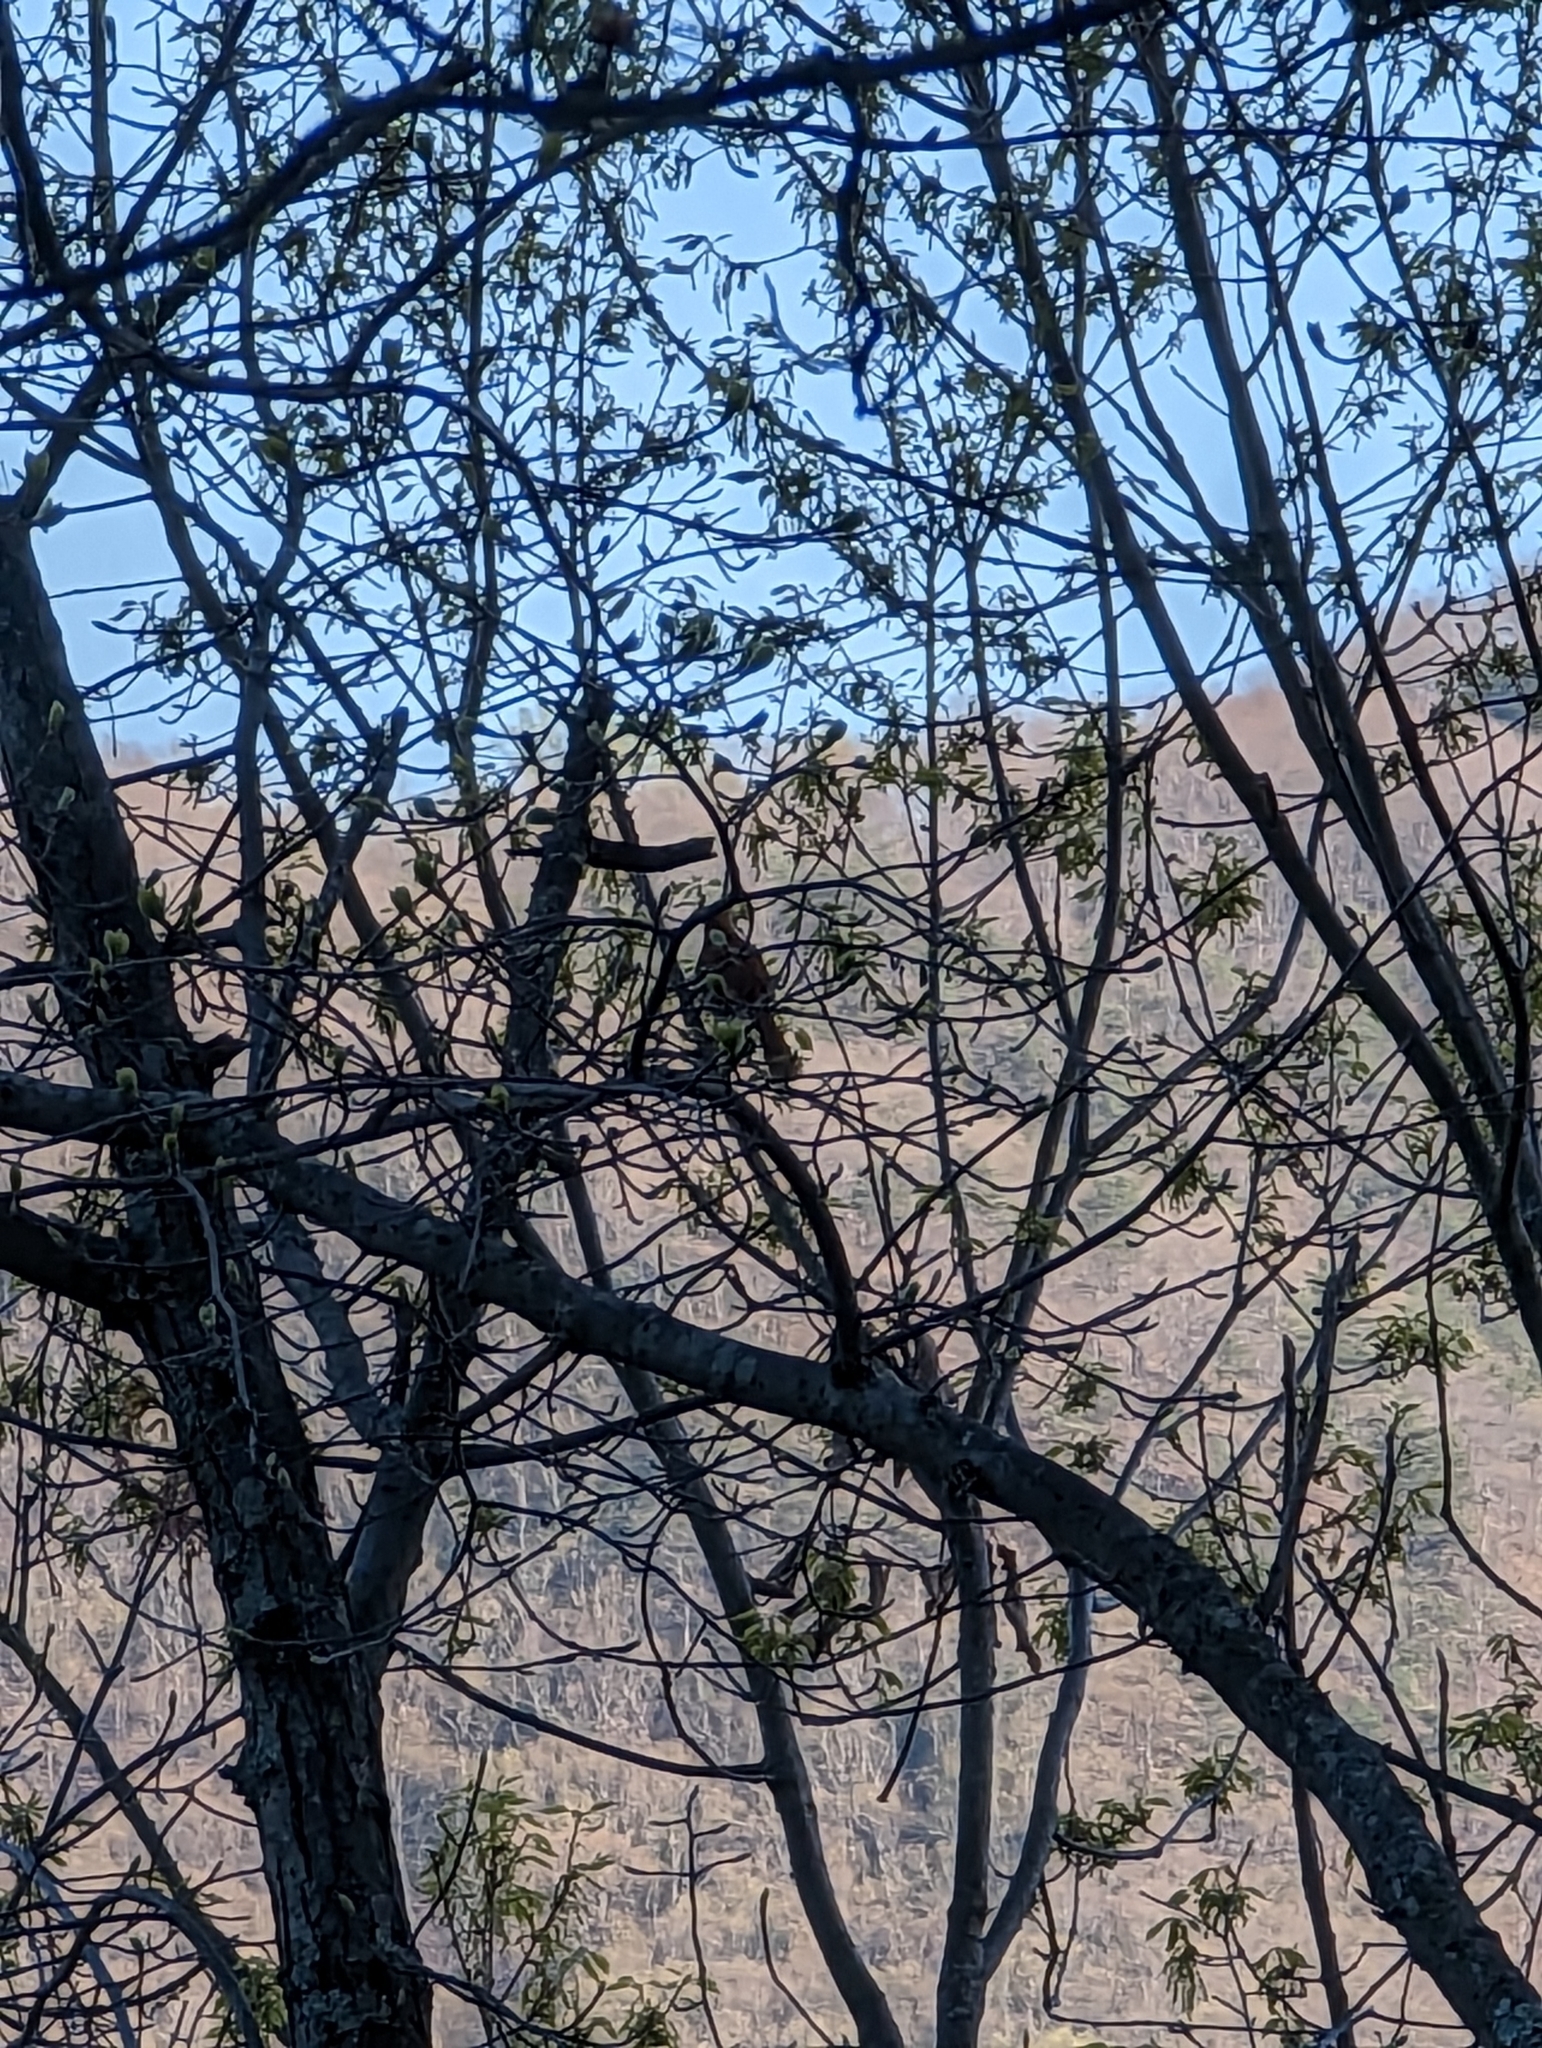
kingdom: Animalia
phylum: Chordata
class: Aves
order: Passeriformes
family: Mimidae
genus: Toxostoma
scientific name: Toxostoma rufum
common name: Brown thrasher
